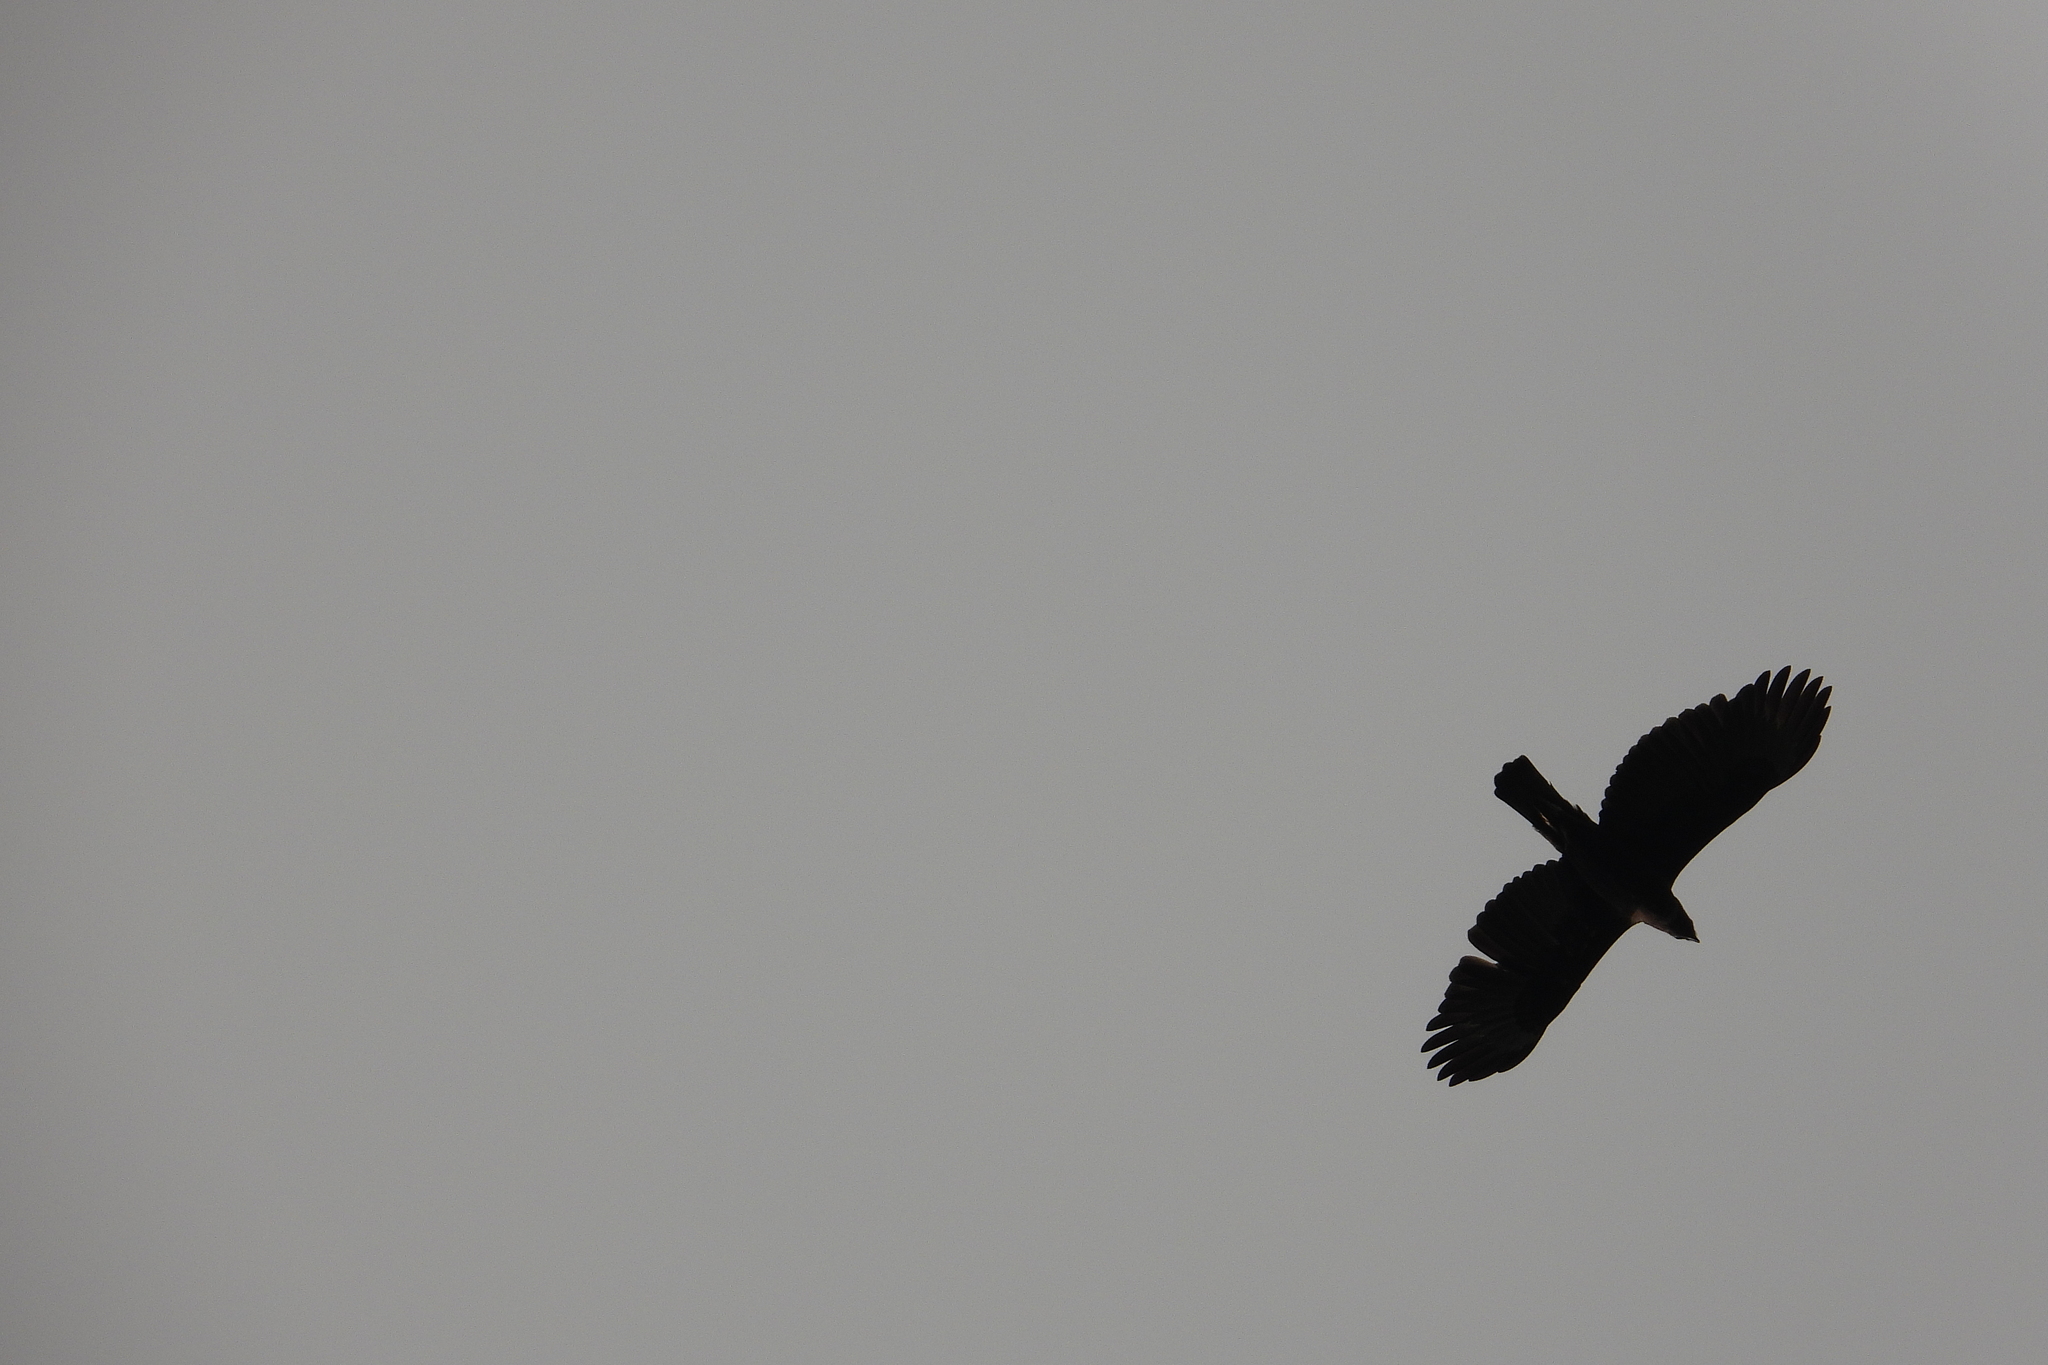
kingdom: Animalia
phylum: Chordata
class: Aves
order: Accipitriformes
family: Accipitridae
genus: Nisaetus
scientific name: Nisaetus cirrhatus
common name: Changeable hawk-eagle
